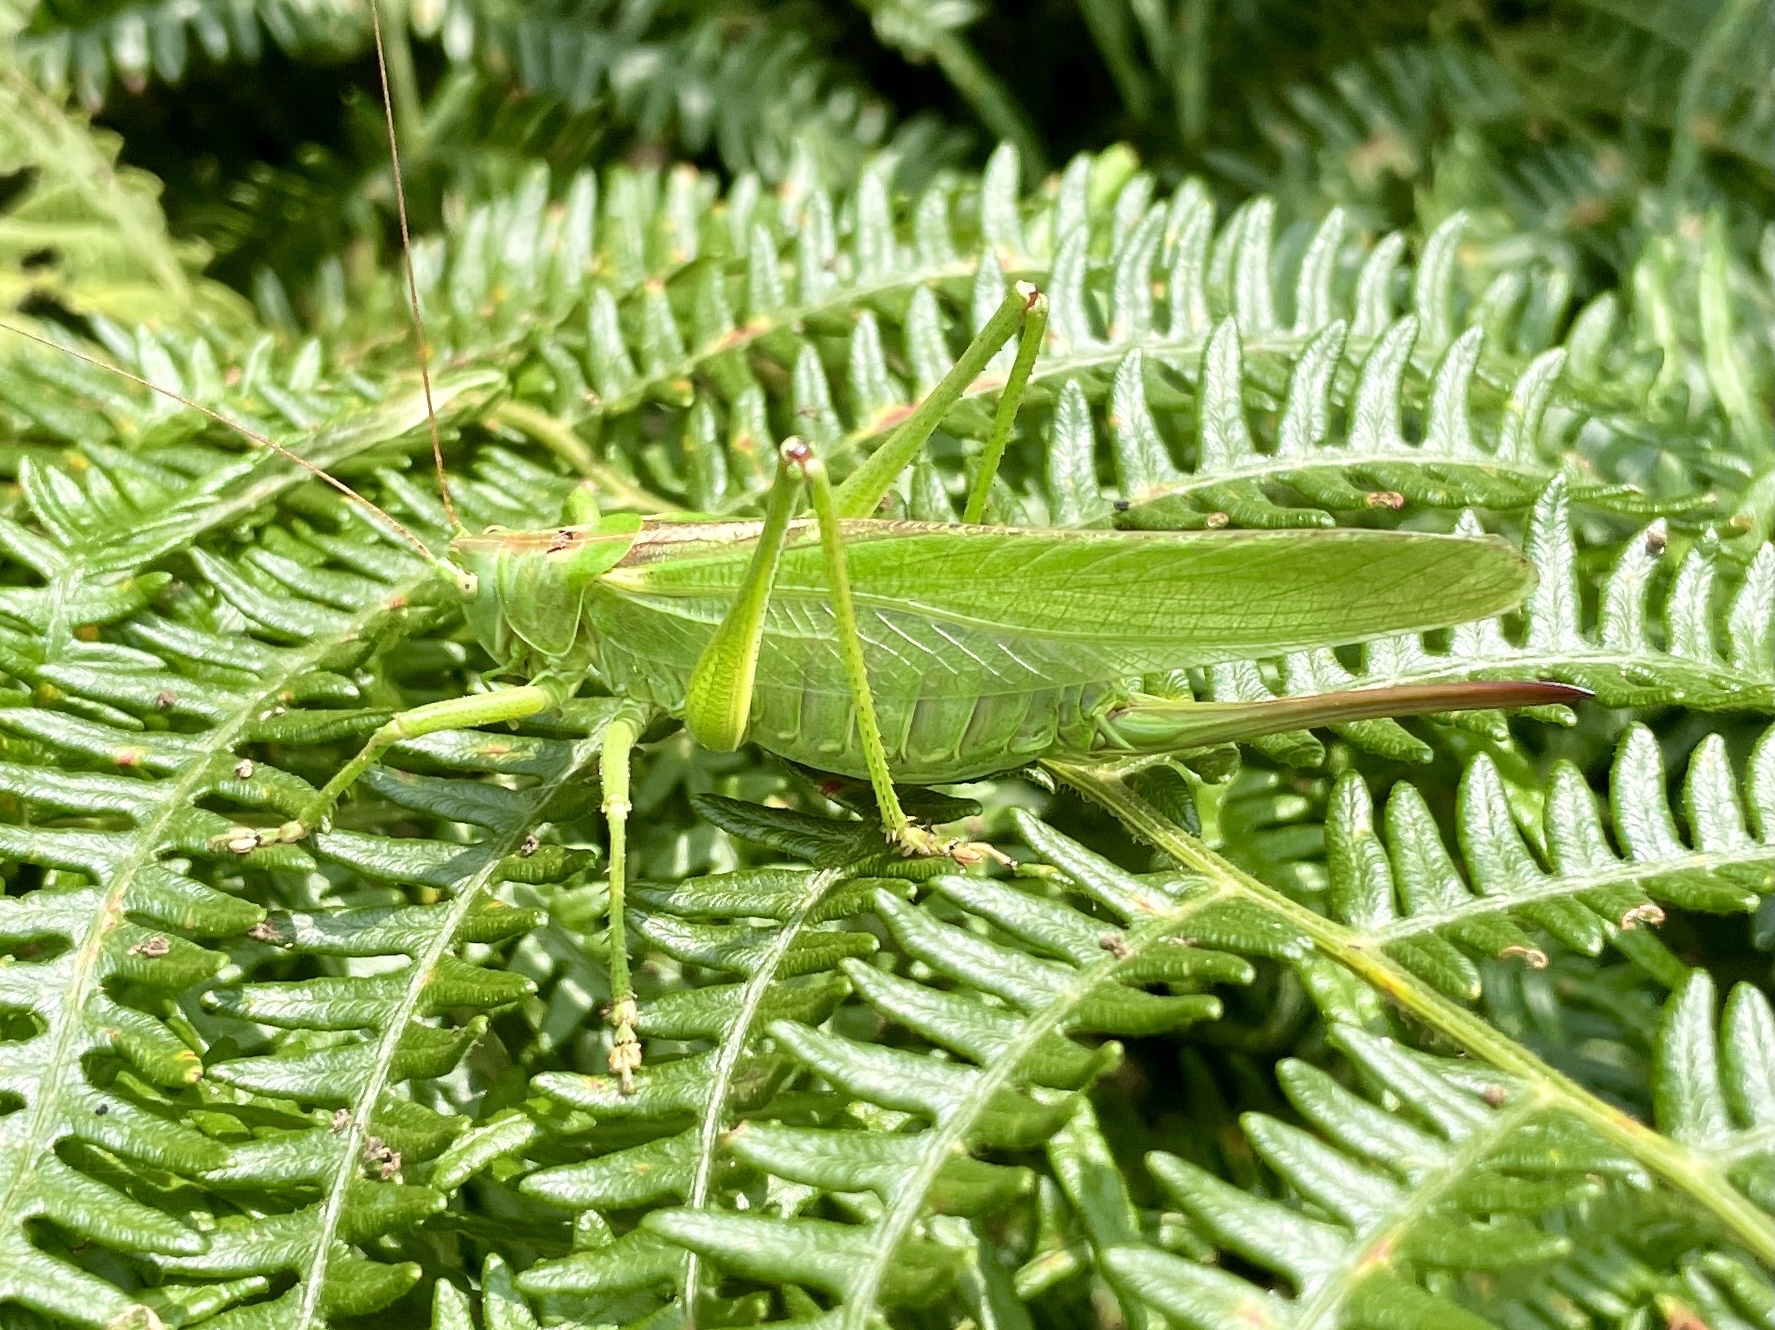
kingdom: Animalia
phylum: Arthropoda
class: Insecta
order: Orthoptera
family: Tettigoniidae
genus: Tettigonia
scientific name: Tettigonia viridissima
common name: Great green bush-cricket
